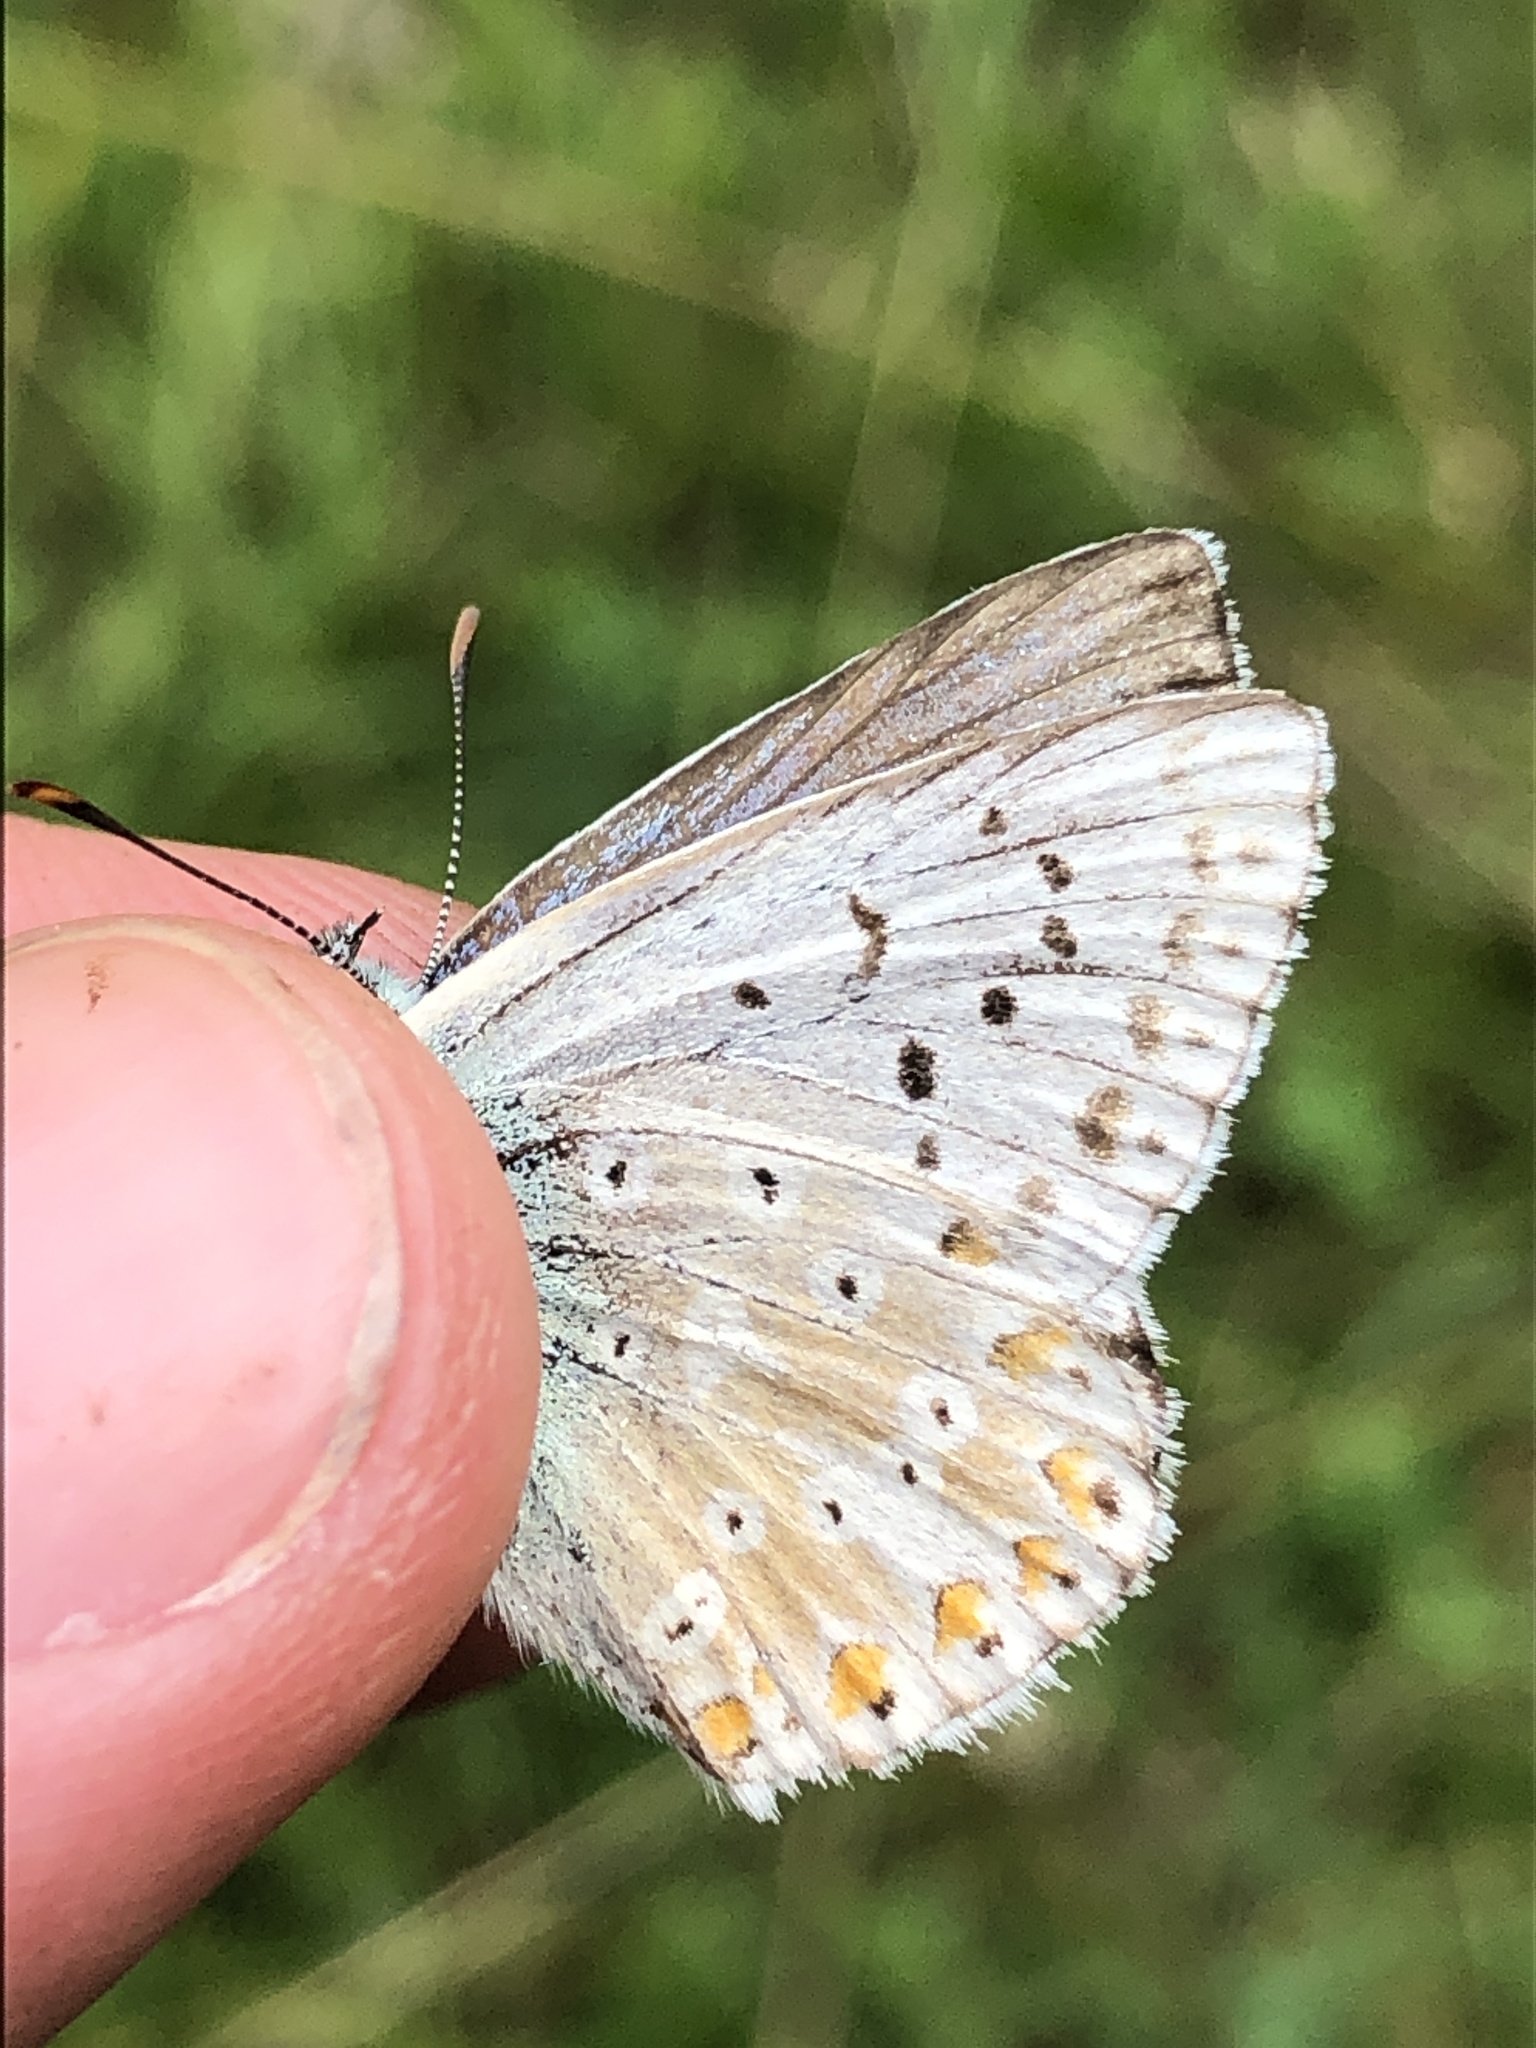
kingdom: Animalia
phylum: Arthropoda
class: Insecta
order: Lepidoptera
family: Lycaenidae
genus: Lysandra
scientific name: Lysandra coridon
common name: Chalkhill blue
